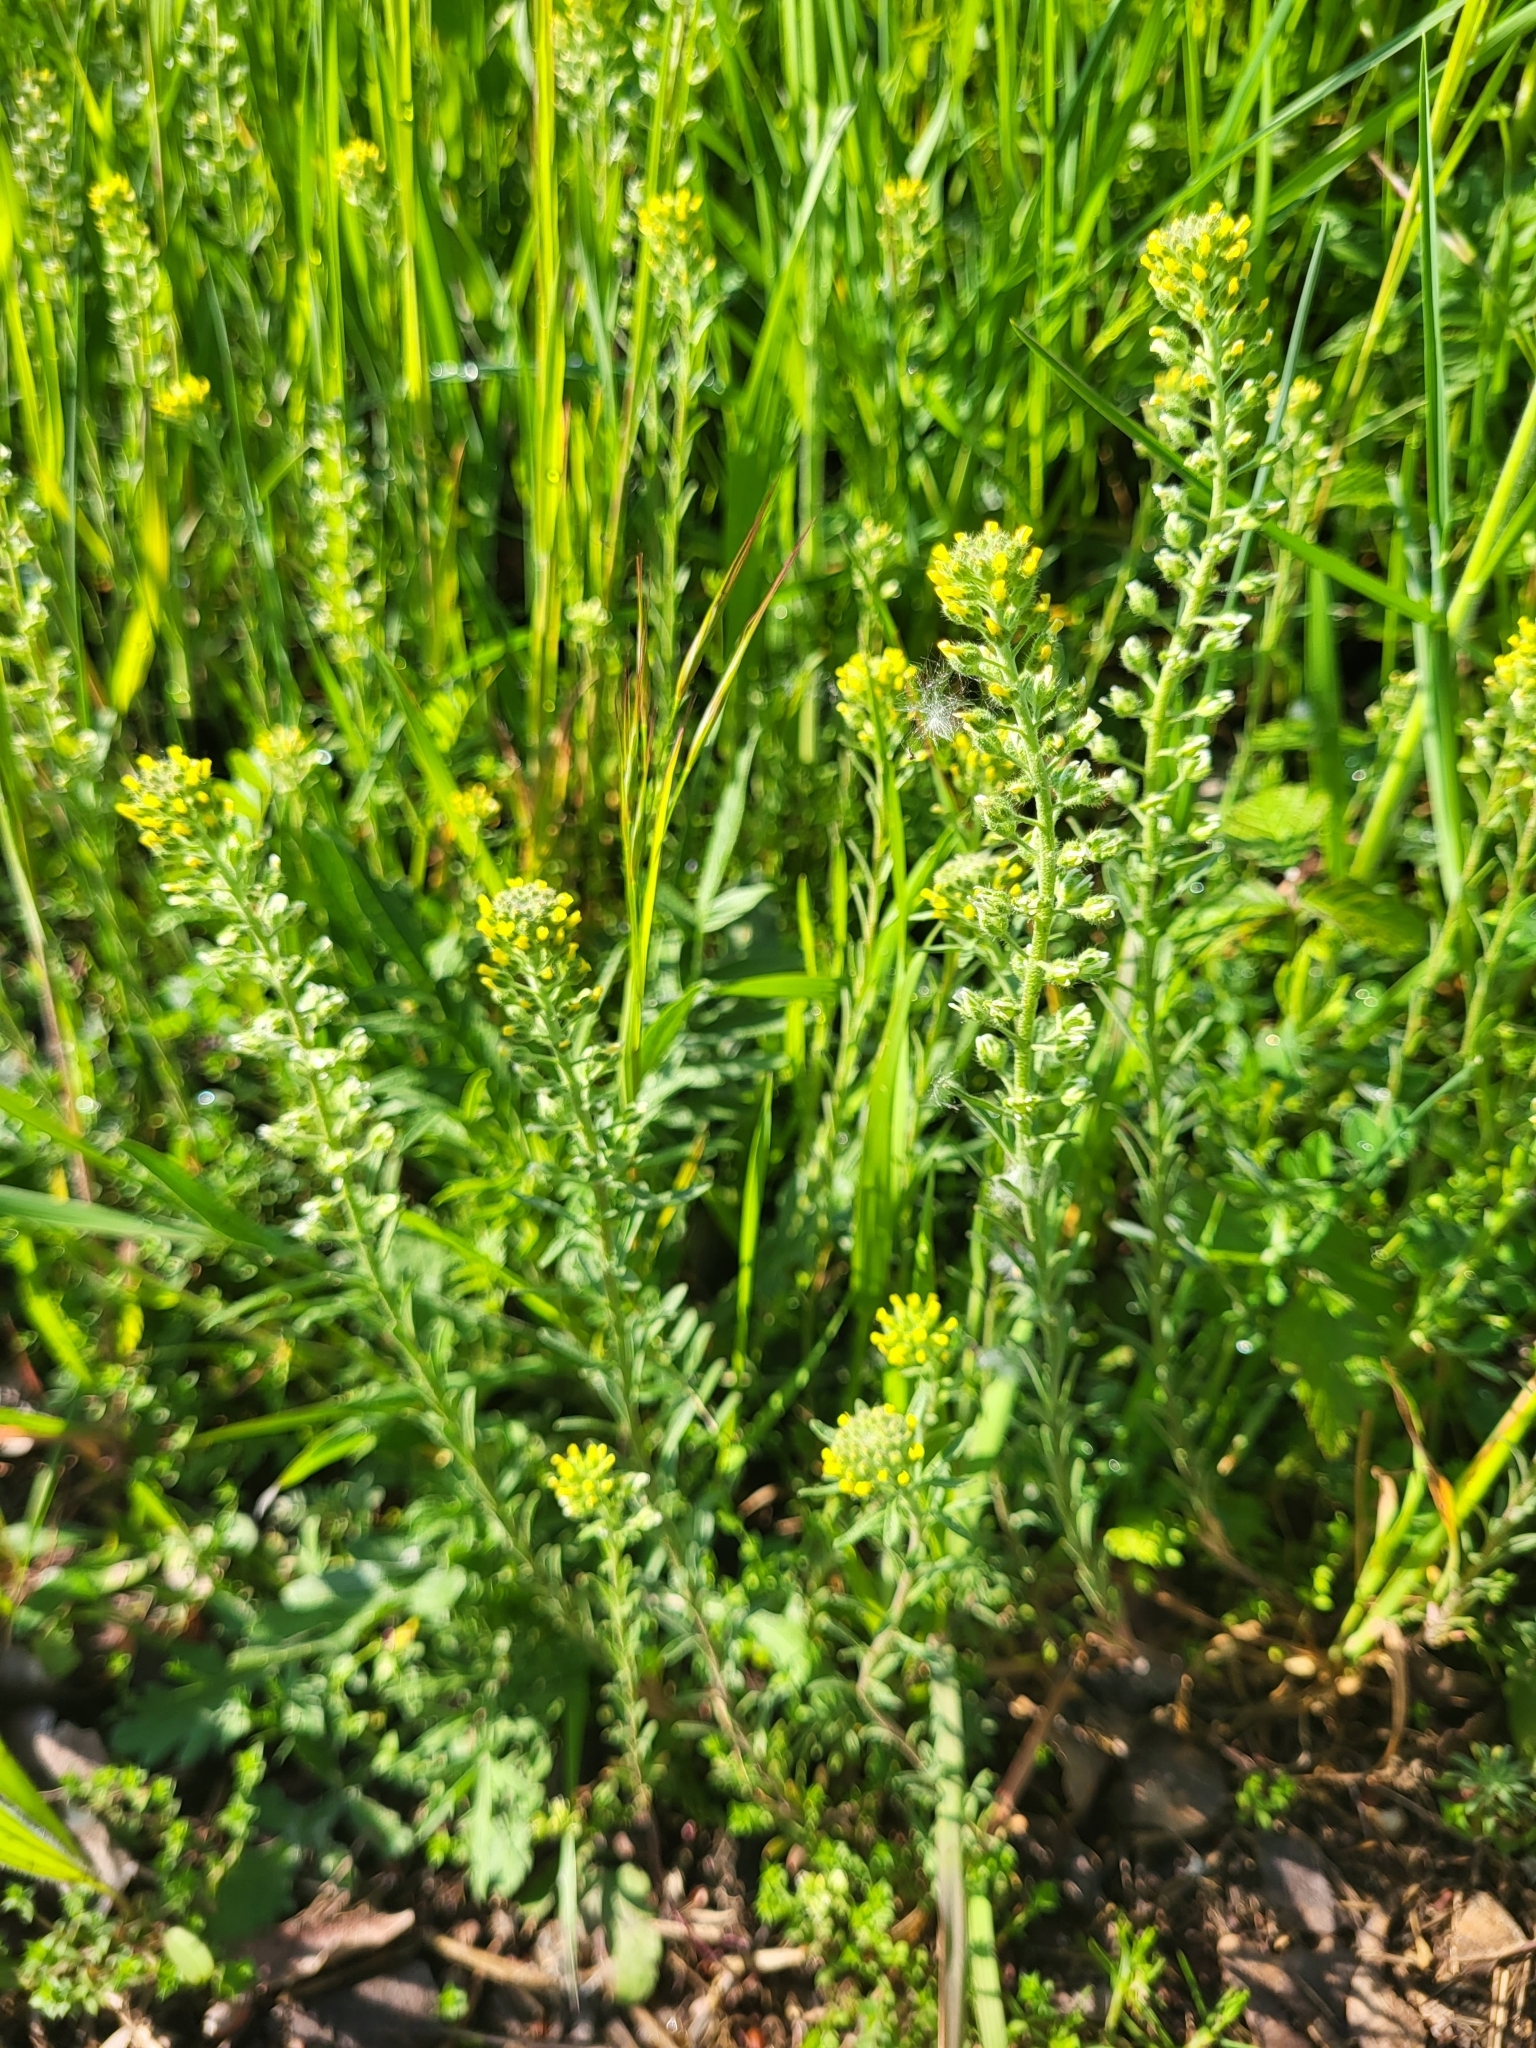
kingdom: Plantae
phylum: Tracheophyta
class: Magnoliopsida
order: Brassicales
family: Brassicaceae
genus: Alyssum
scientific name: Alyssum alyssoides
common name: Small alison
